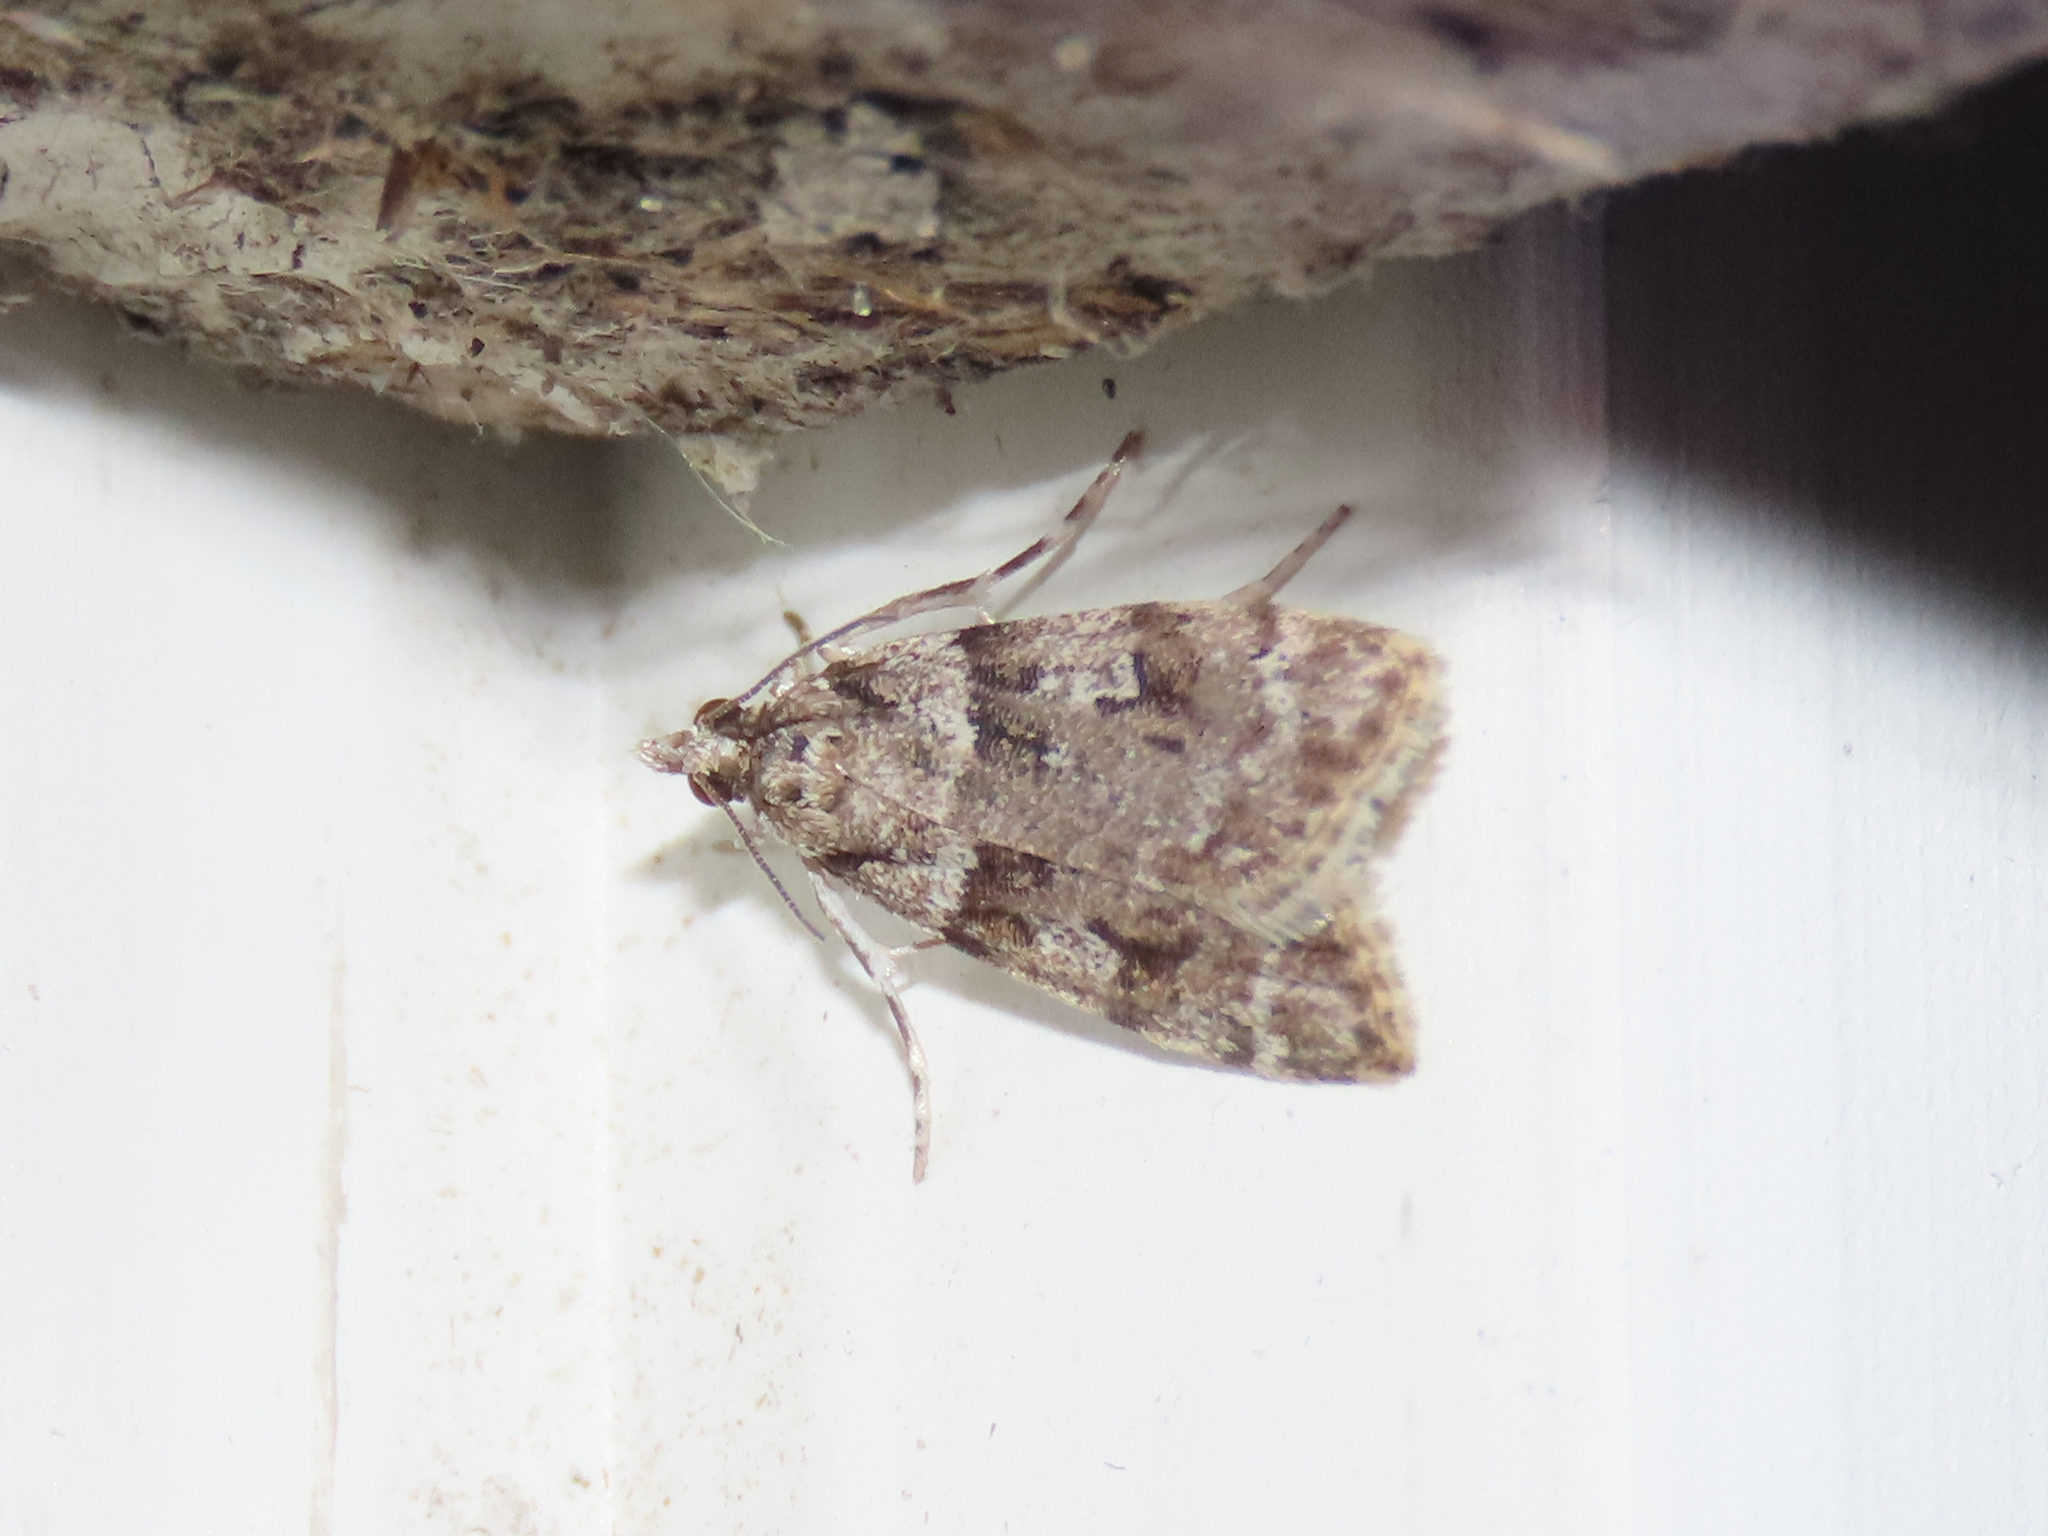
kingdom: Animalia
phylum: Arthropoda
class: Insecta
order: Lepidoptera
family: Crambidae
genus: Scoparia
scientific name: Scoparia biplagialis
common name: Double-striped scoparia moth
